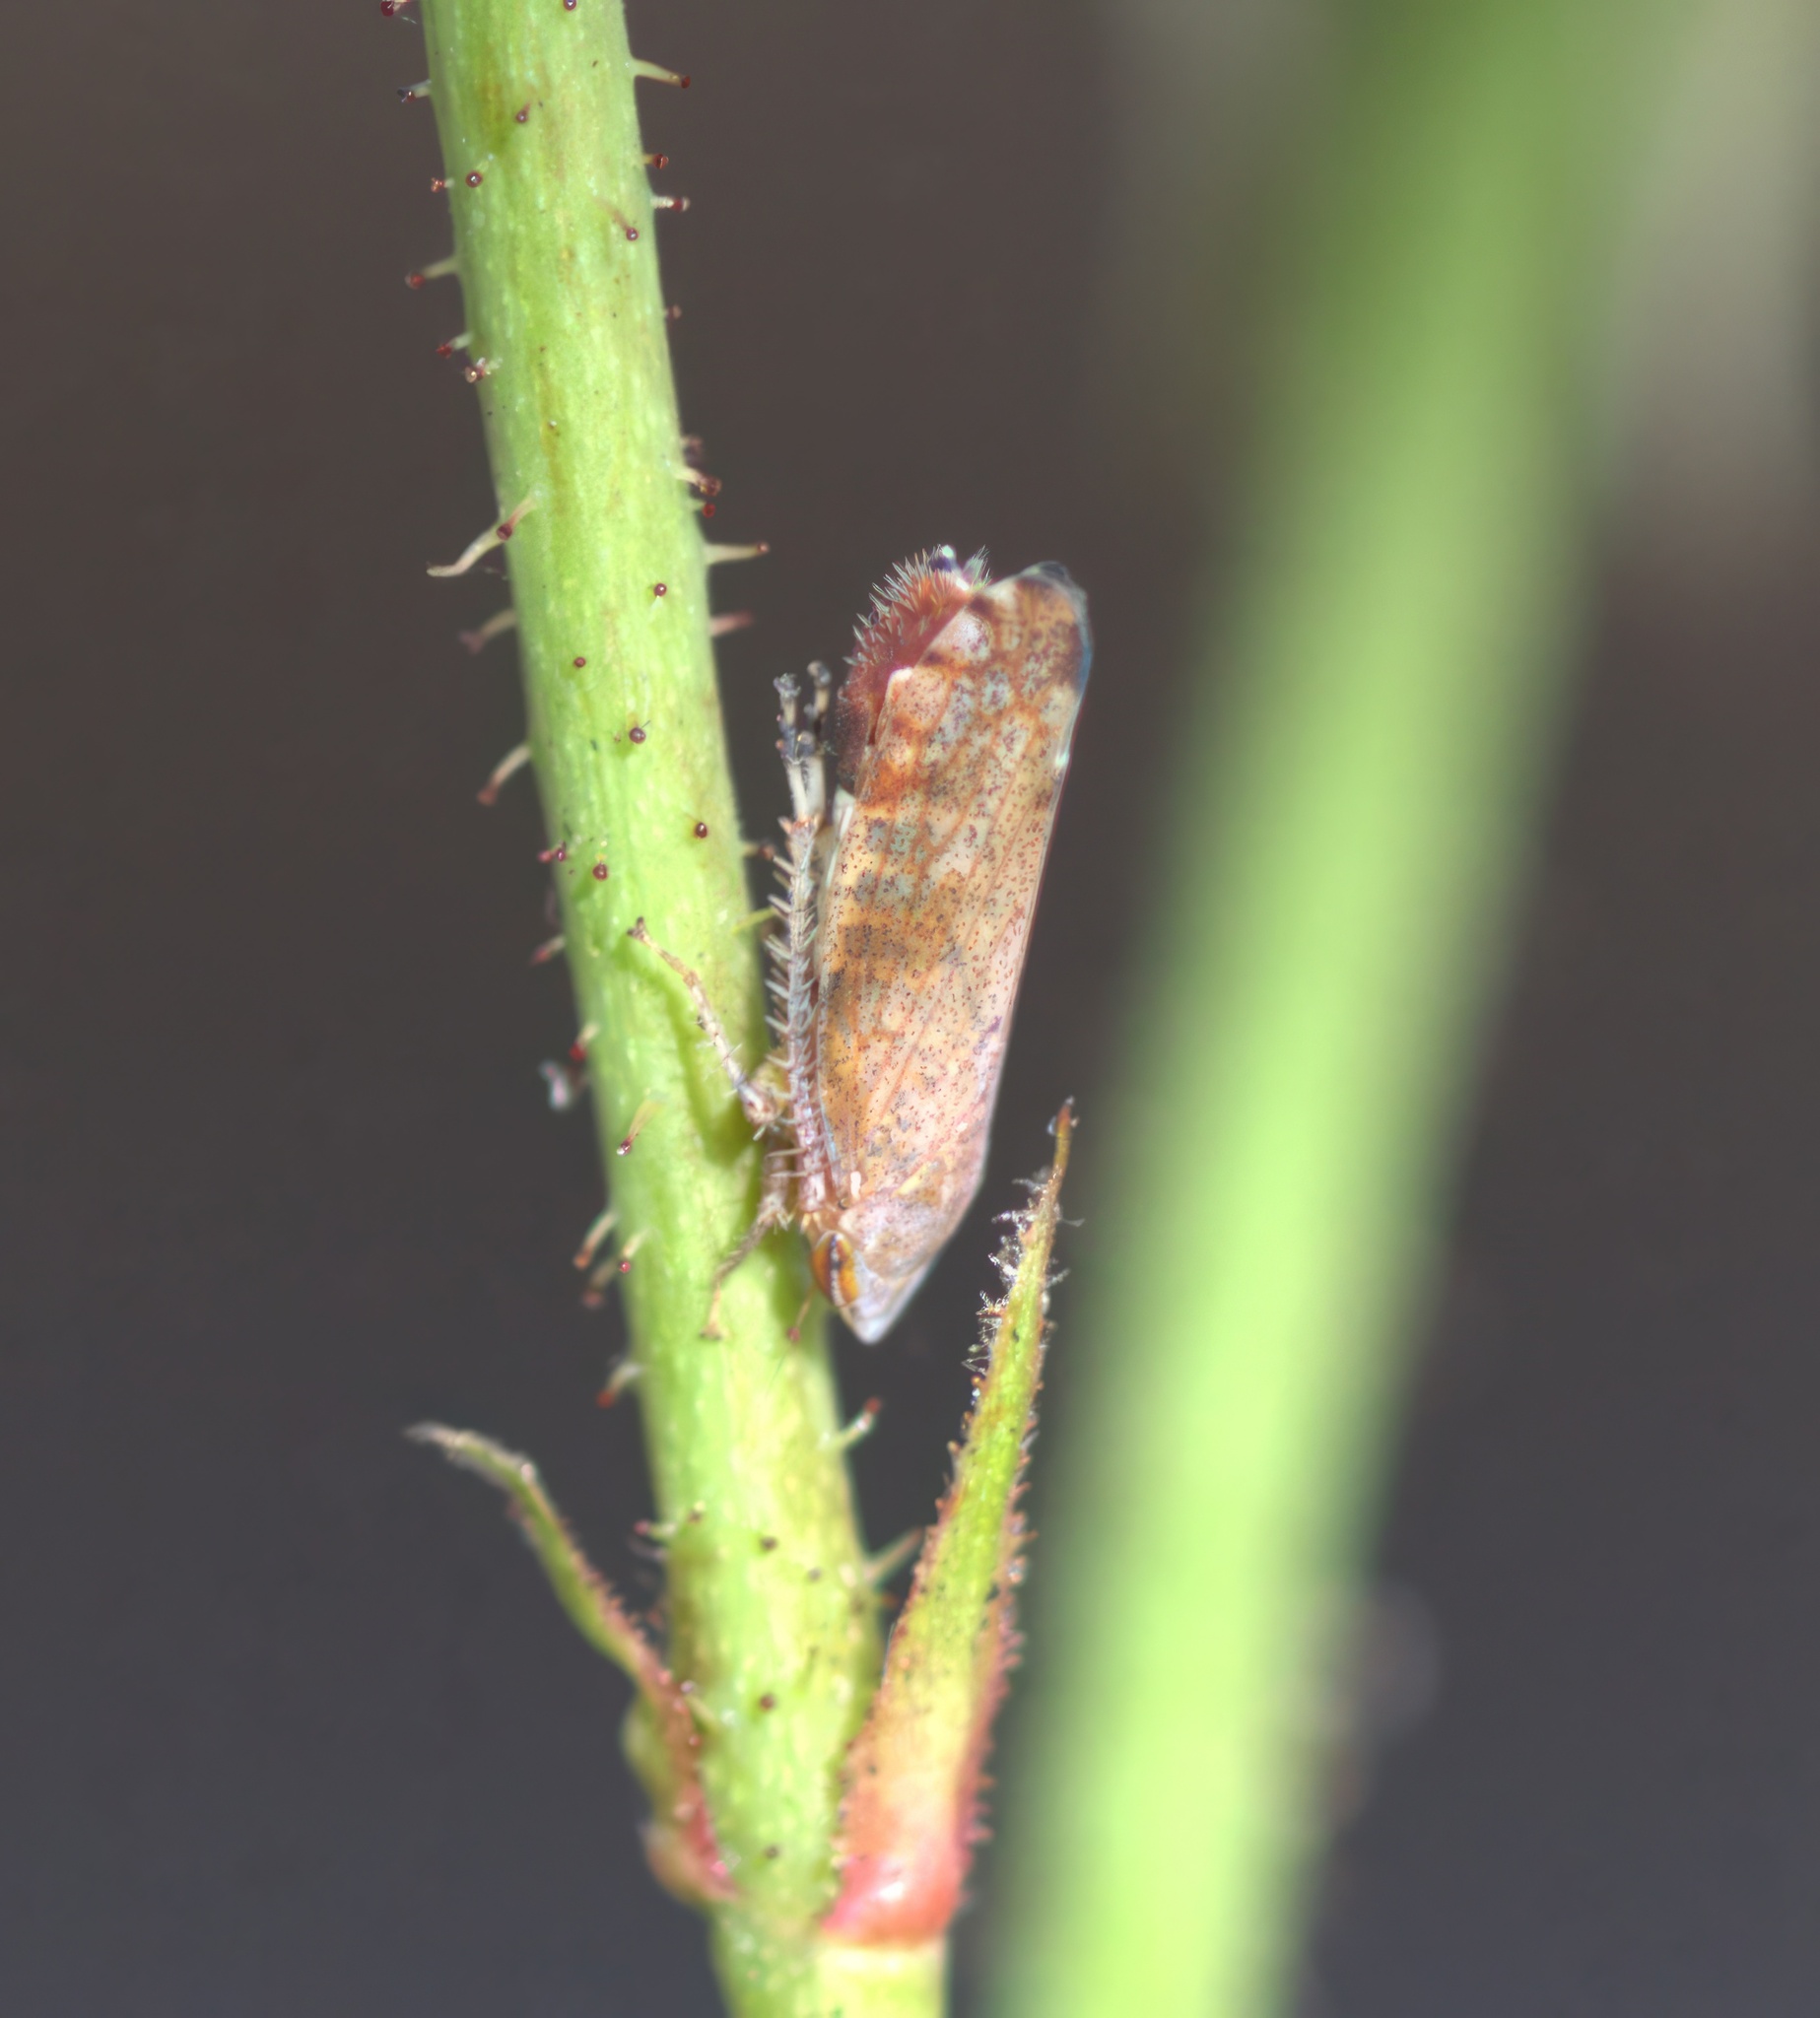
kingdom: Animalia
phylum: Arthropoda
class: Insecta
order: Hemiptera
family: Cicadellidae
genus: Fieberiella
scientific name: Fieberiella florii
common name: Flor’s leafhopper
